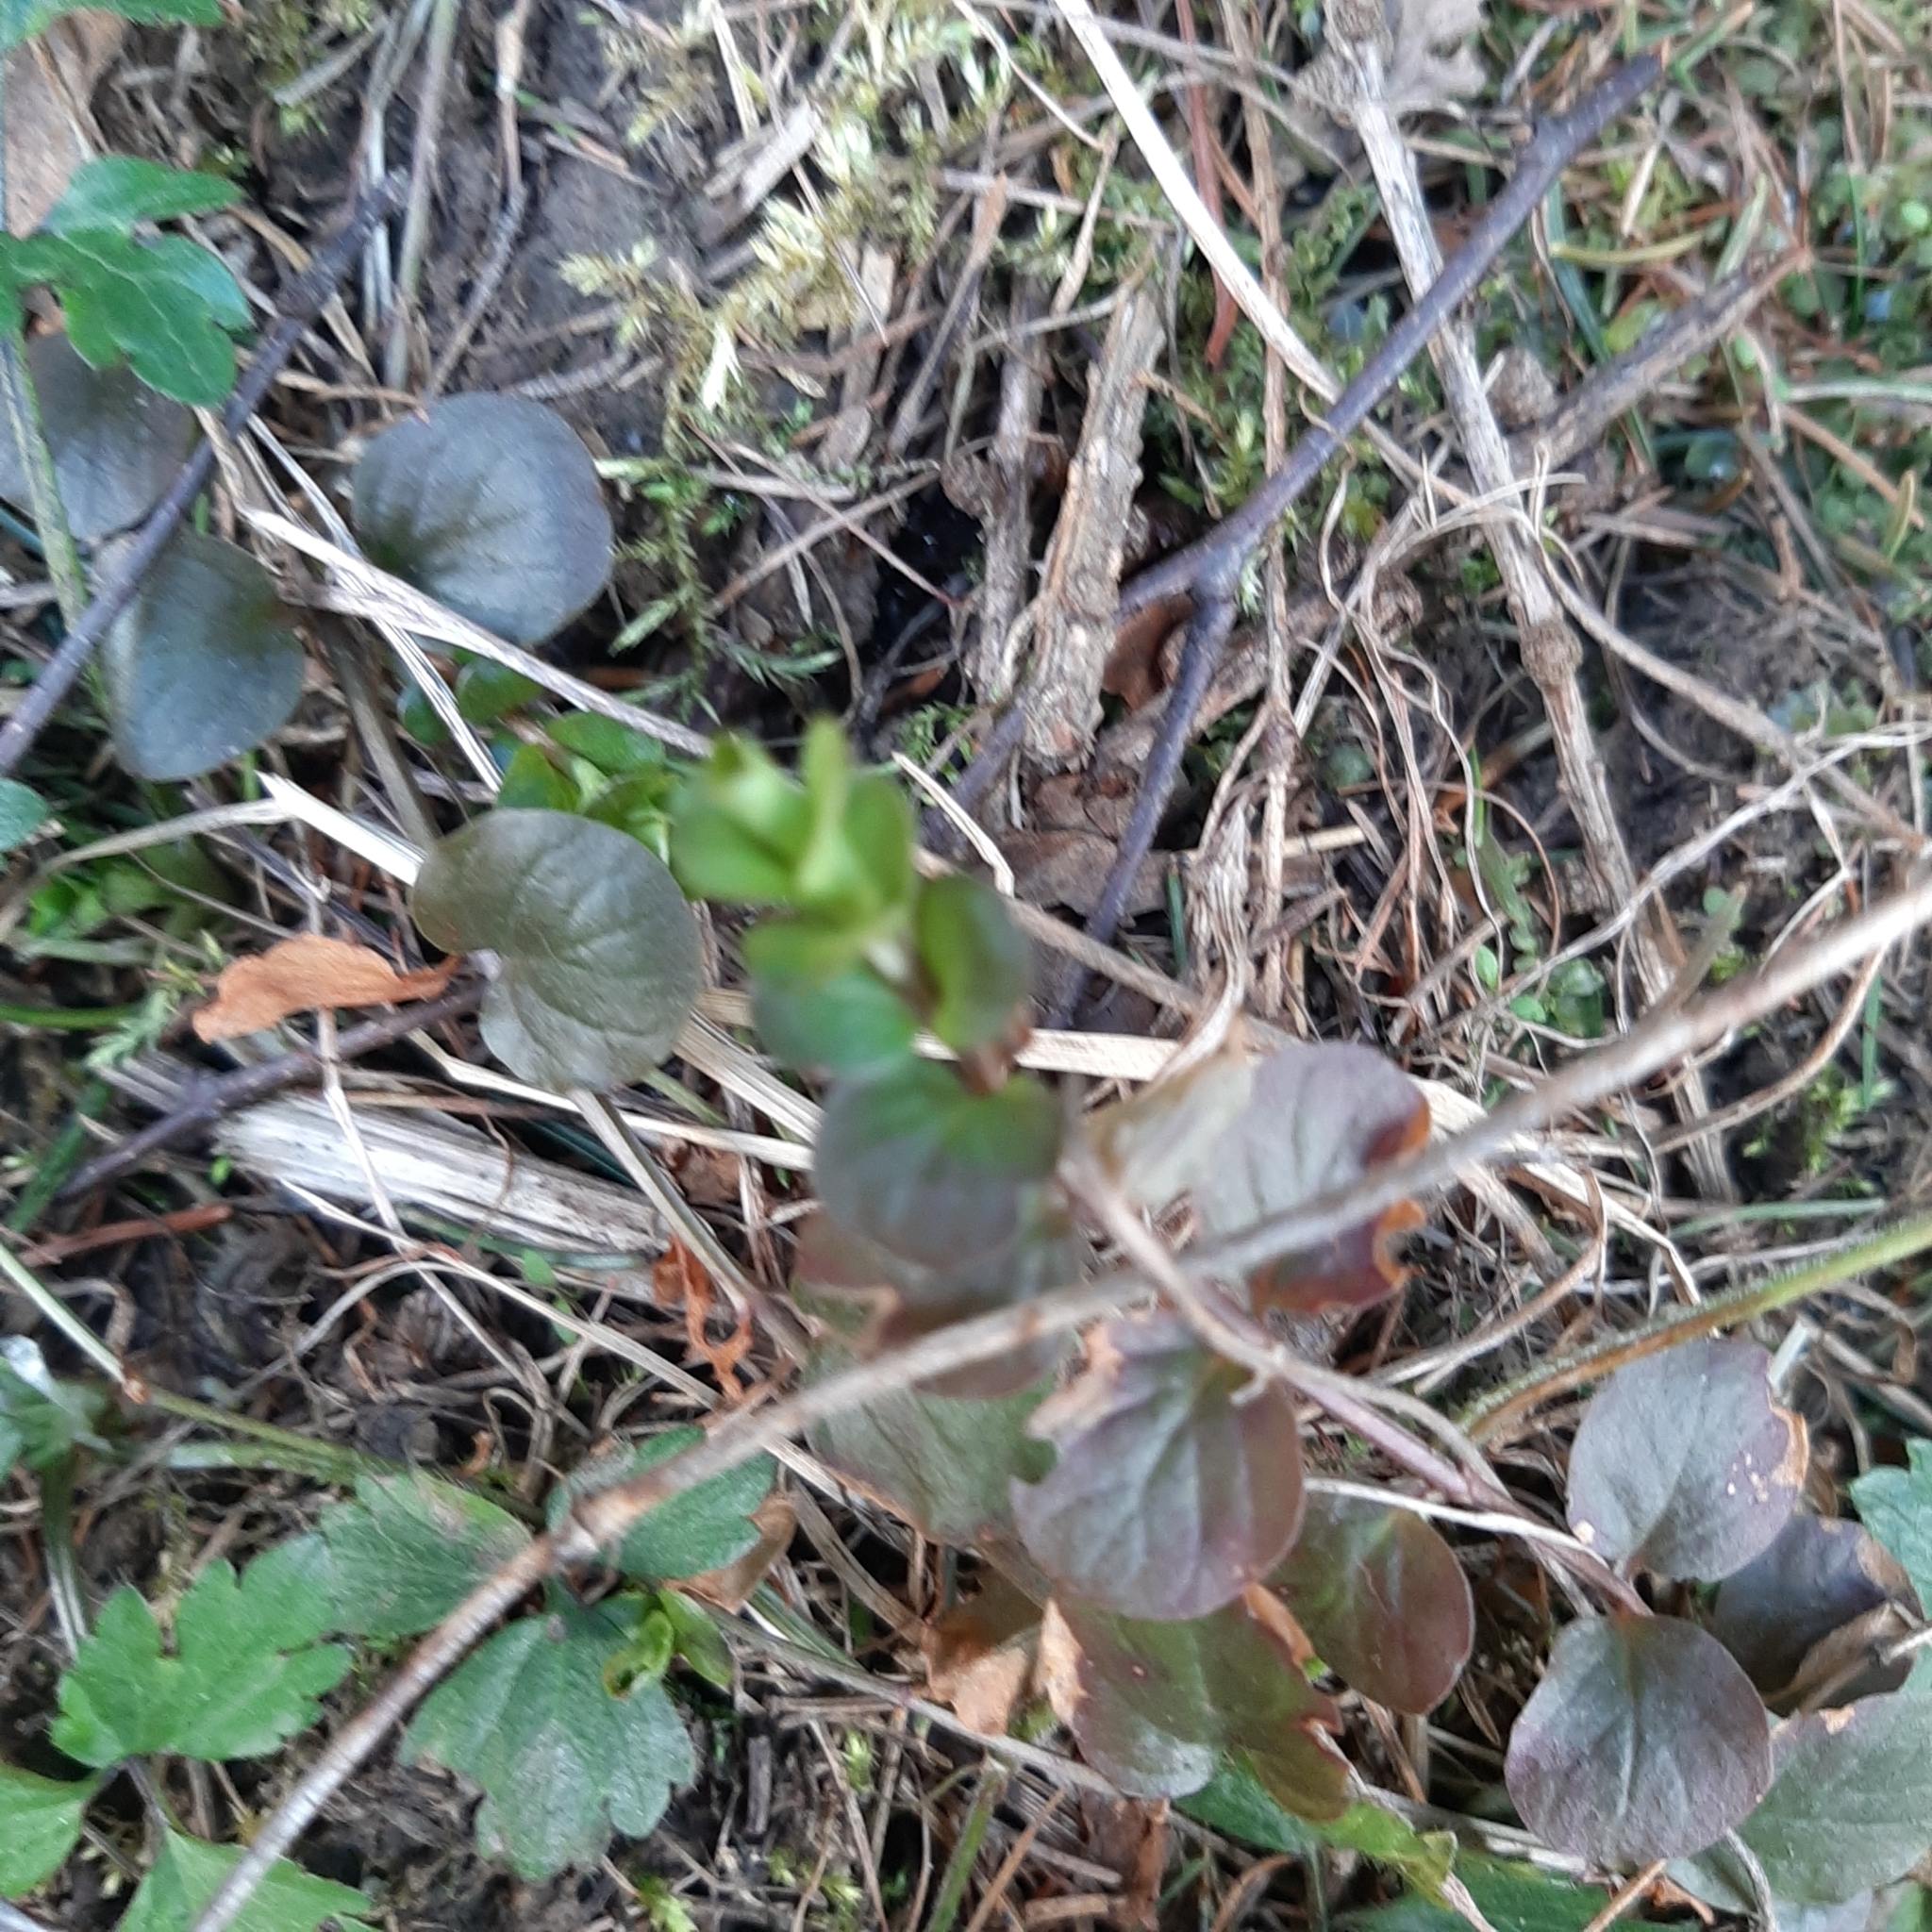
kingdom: Plantae
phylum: Tracheophyta
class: Magnoliopsida
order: Ericales
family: Primulaceae
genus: Lysimachia
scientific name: Lysimachia nummularia
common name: Moneywort
